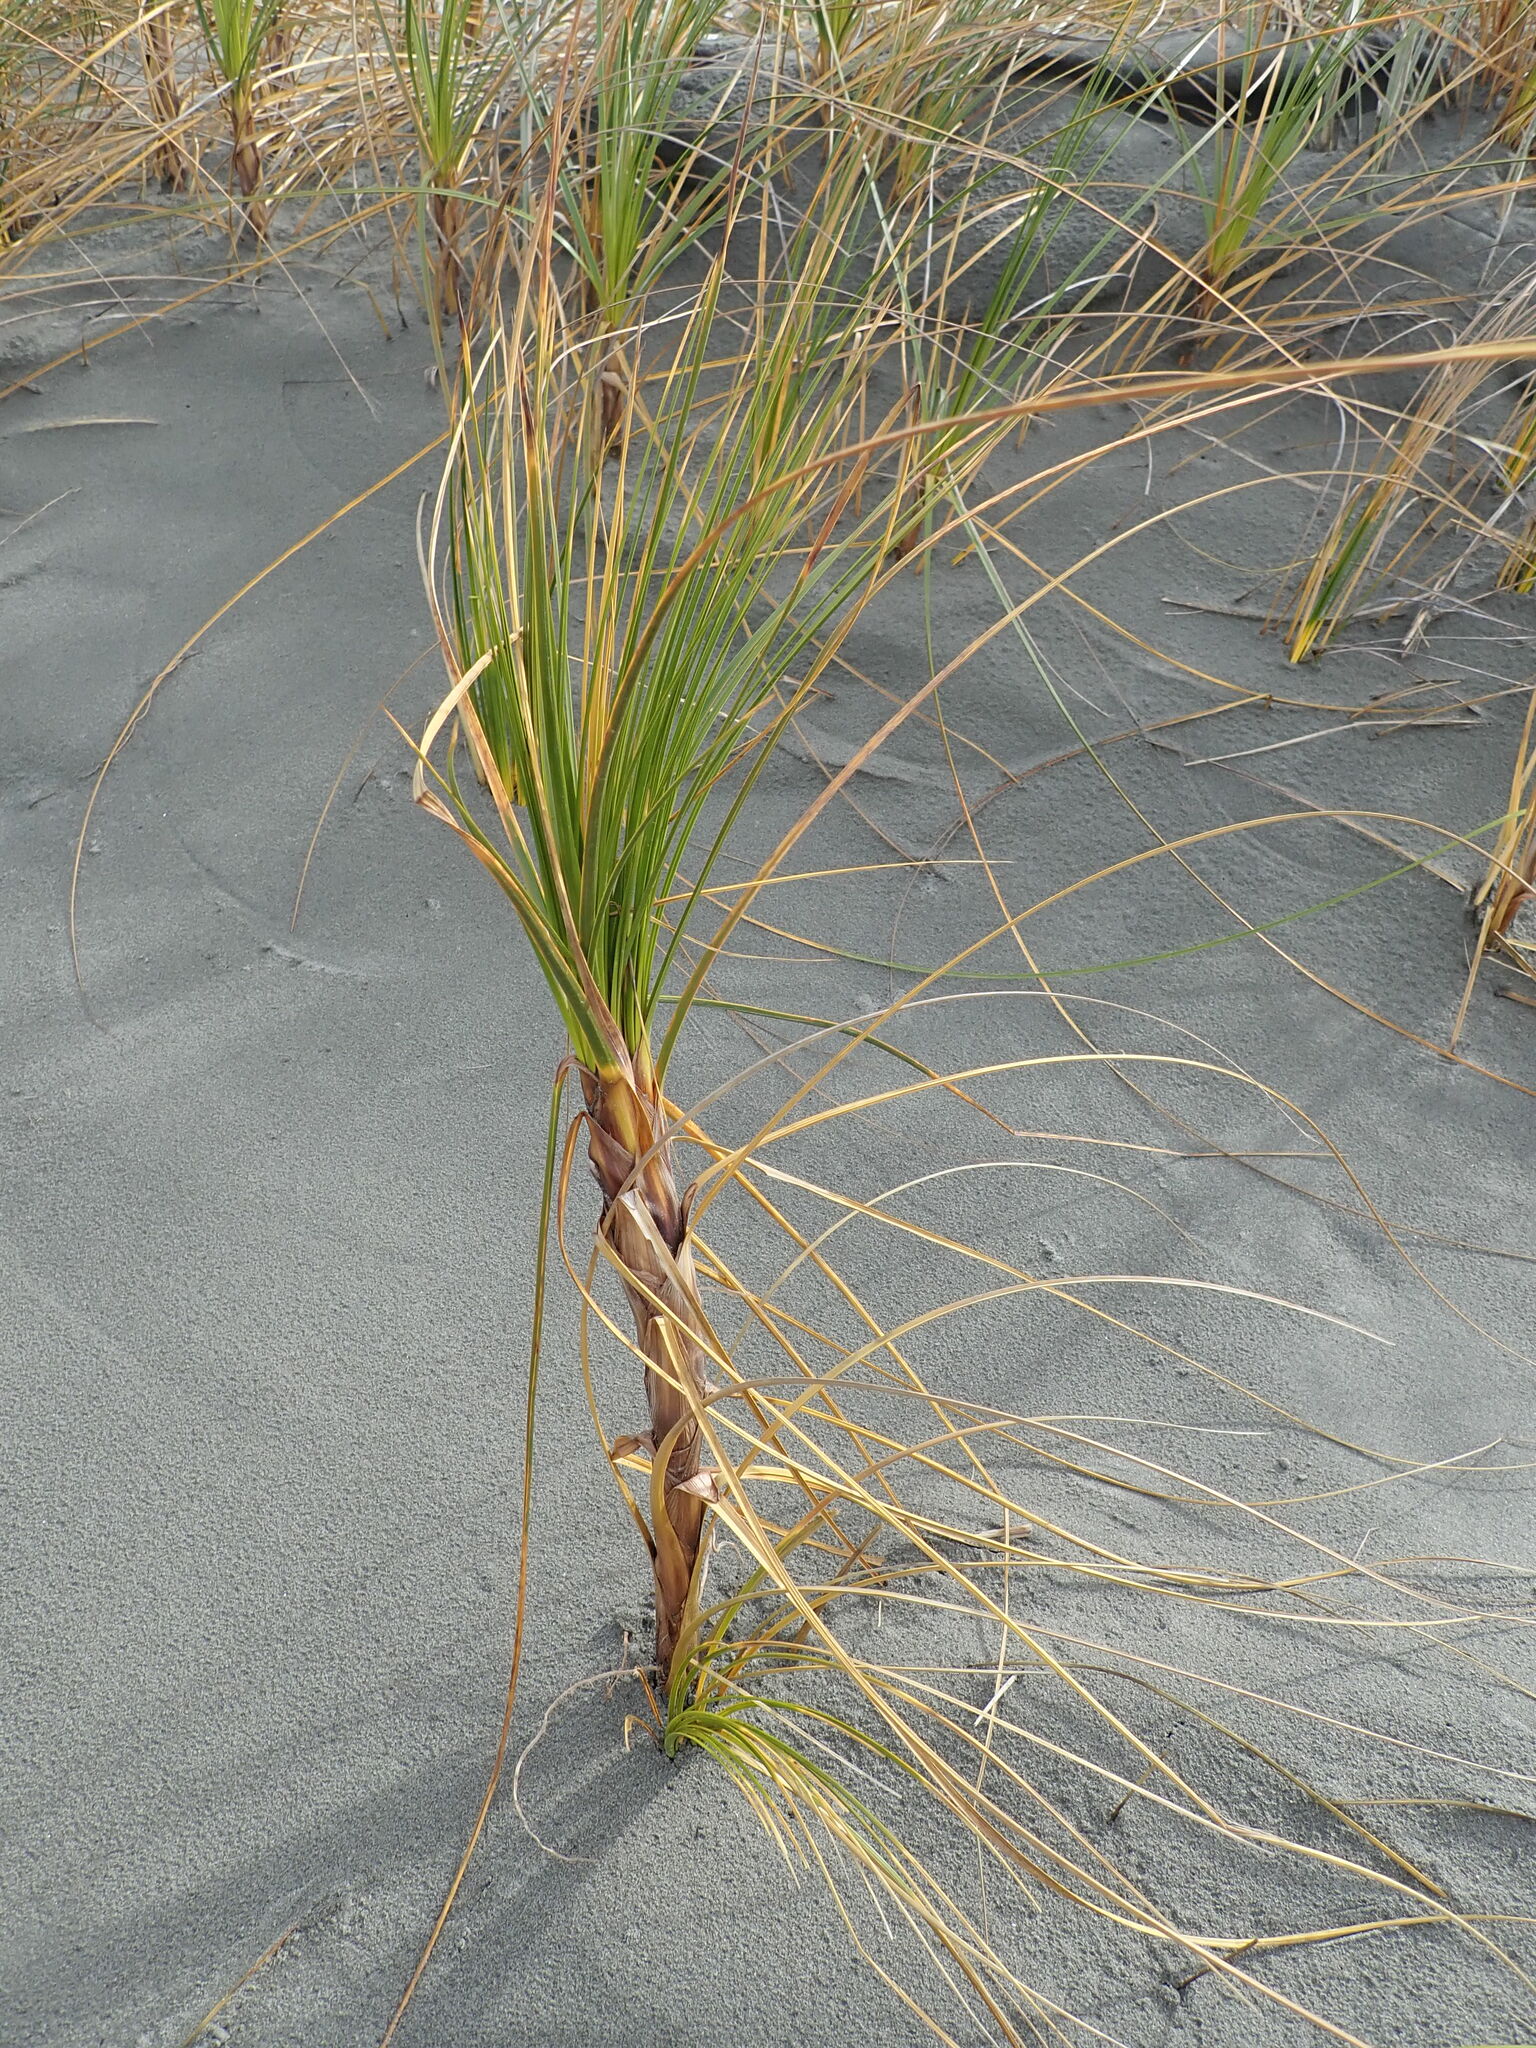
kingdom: Plantae
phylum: Tracheophyta
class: Liliopsida
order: Poales
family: Cyperaceae
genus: Ficinia
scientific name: Ficinia spiralis
